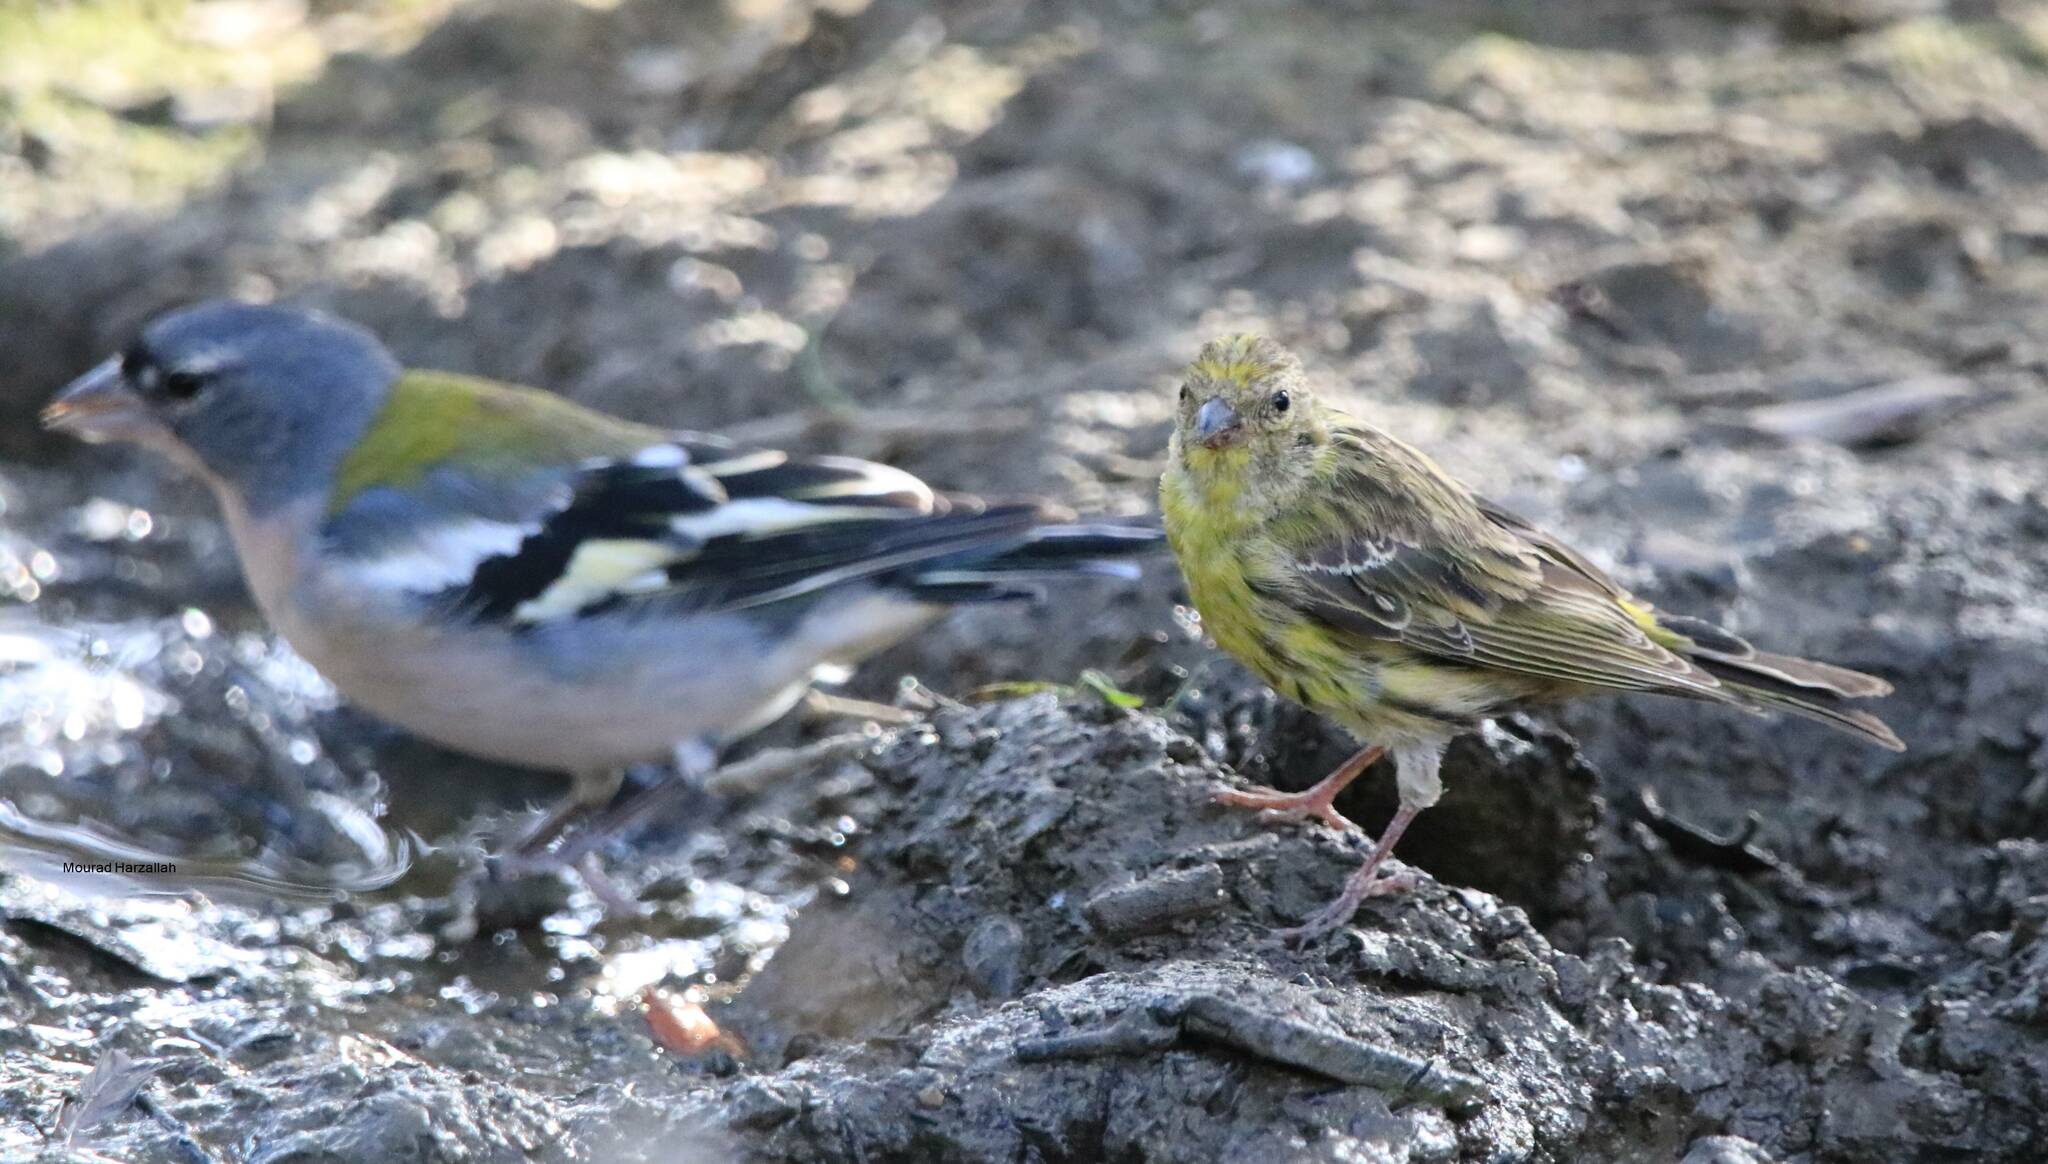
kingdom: Animalia
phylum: Chordata
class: Aves
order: Passeriformes
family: Fringillidae
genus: Serinus
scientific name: Serinus serinus
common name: European serin
